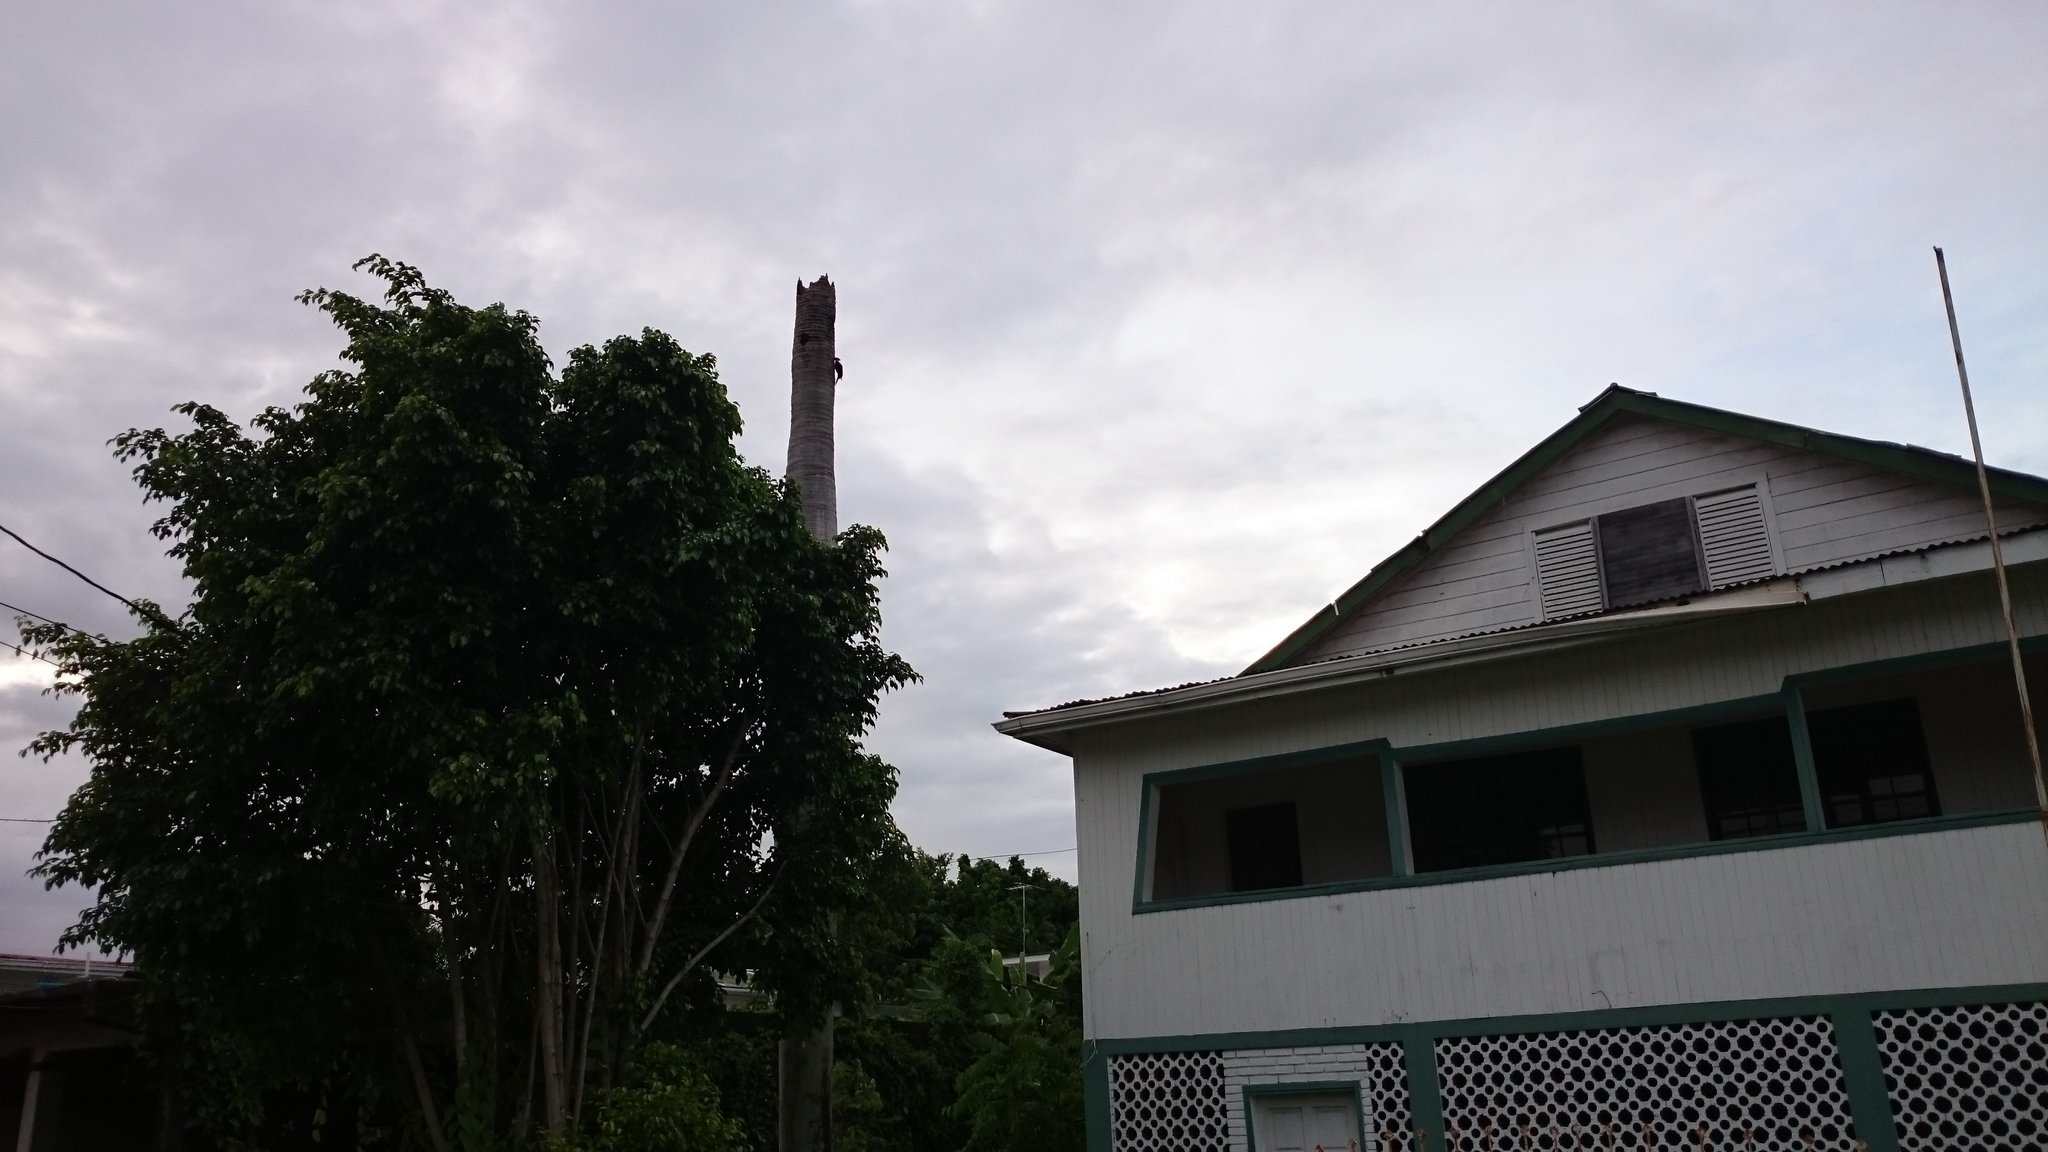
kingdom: Animalia
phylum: Chordata
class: Aves
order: Piciformes
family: Picidae
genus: Campephilus
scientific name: Campephilus melanoleucos
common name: Crimson-crested woodpecker
